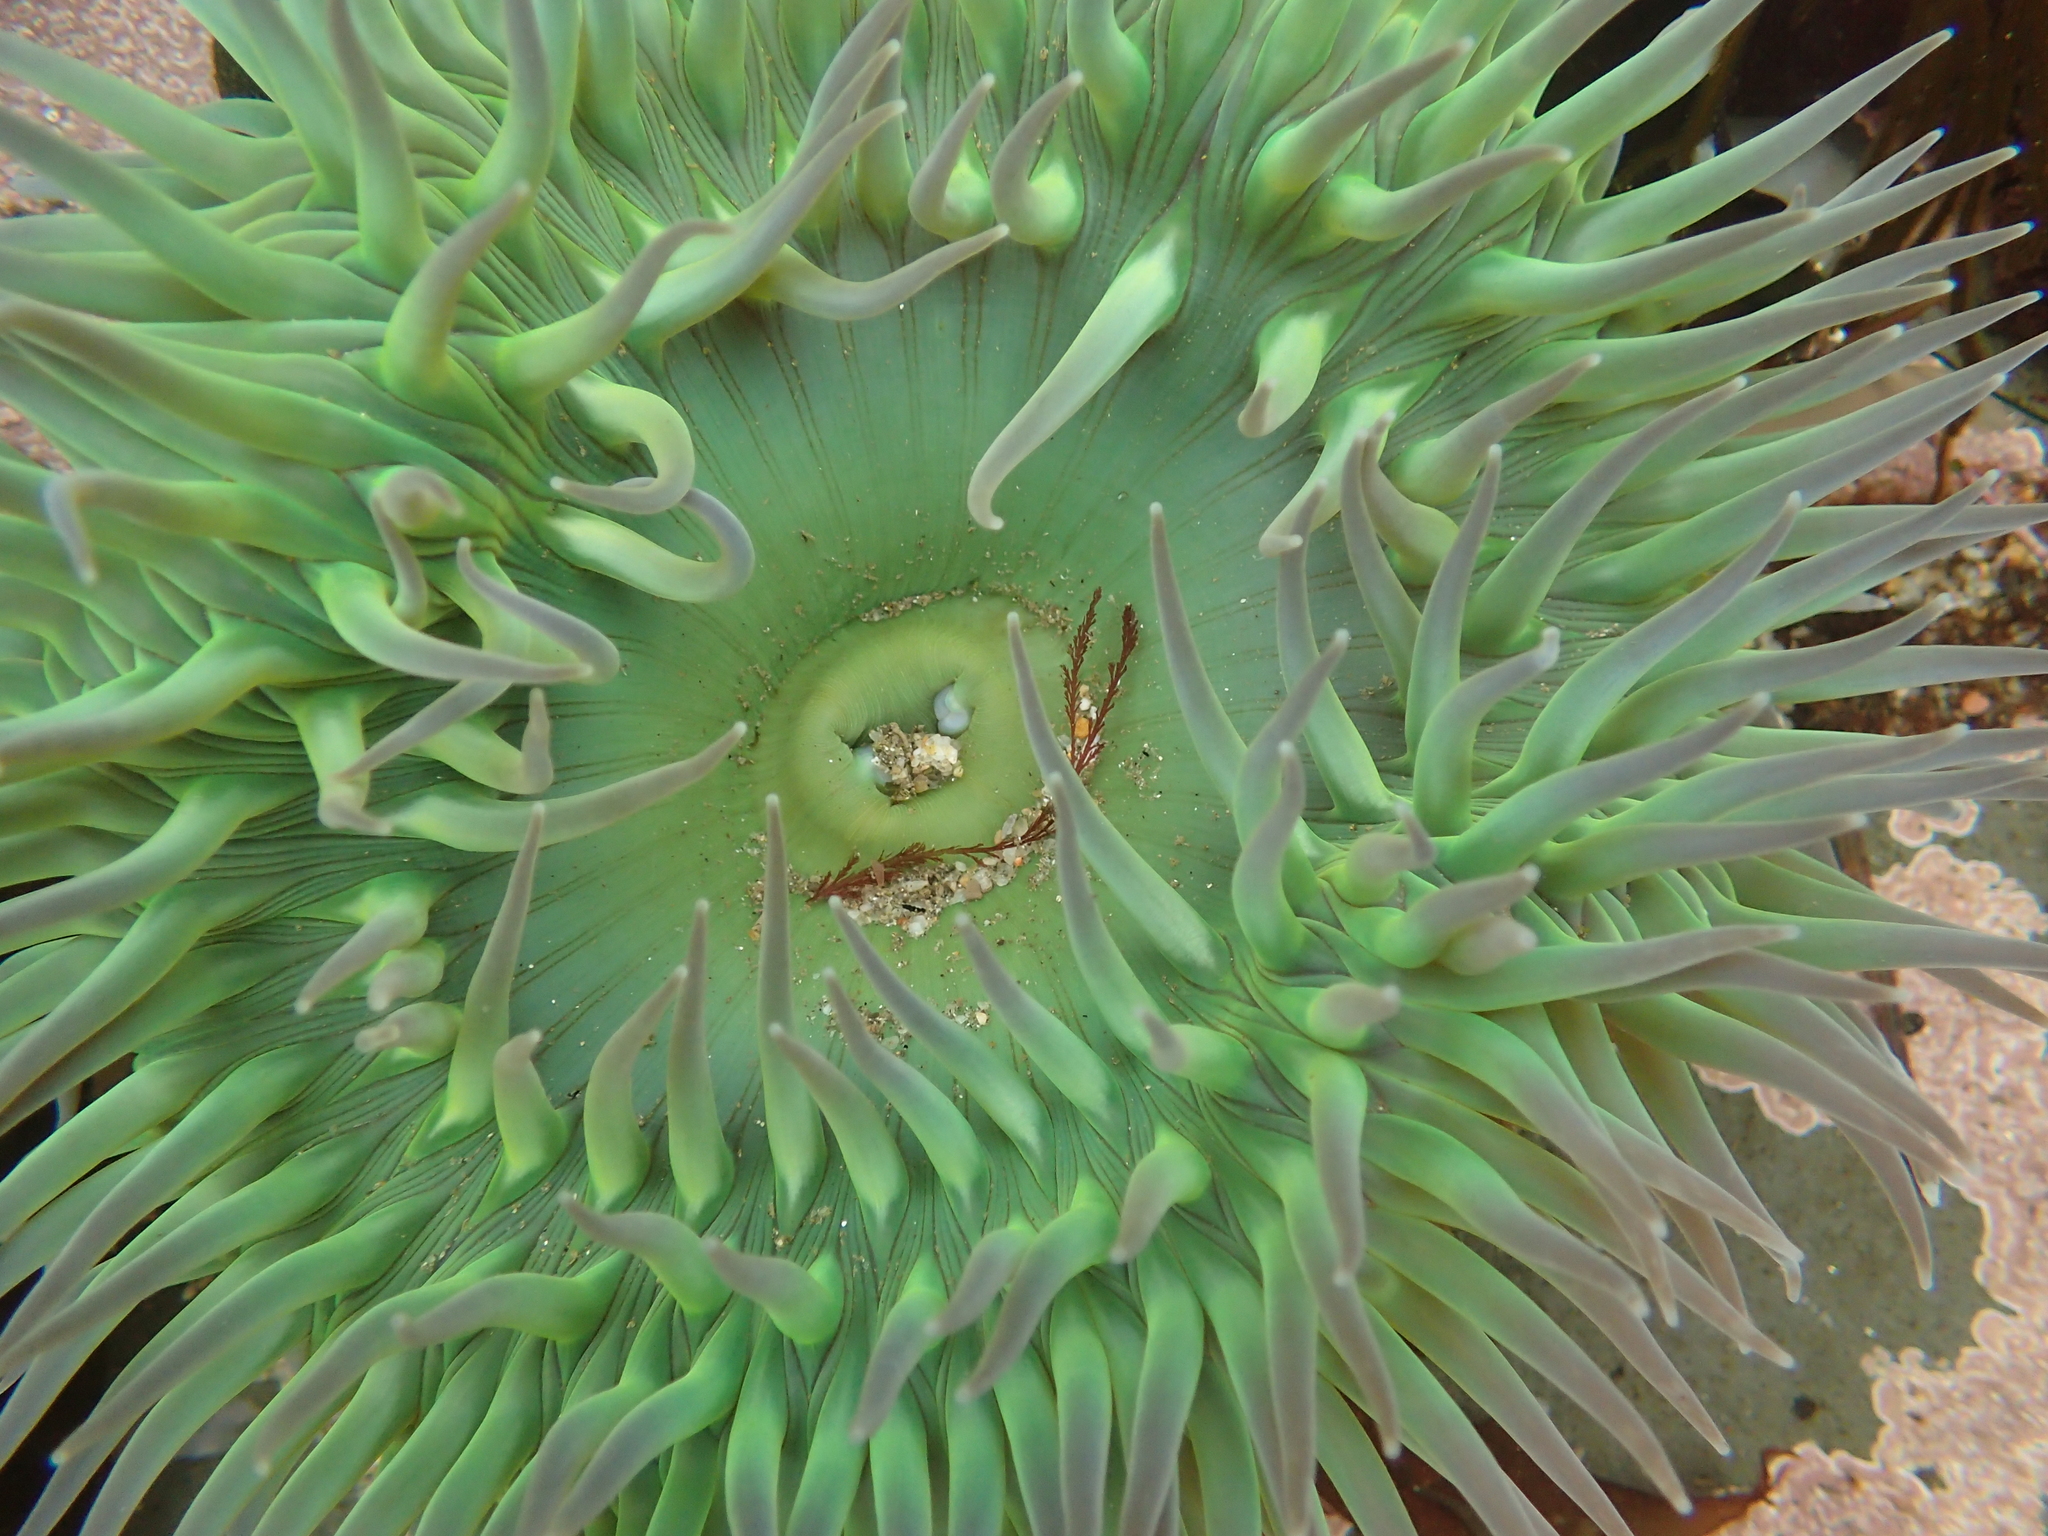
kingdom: Animalia
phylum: Cnidaria
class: Anthozoa
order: Actiniaria
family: Actiniidae
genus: Anthopleura
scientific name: Anthopleura xanthogrammica
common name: Giant green anemone
